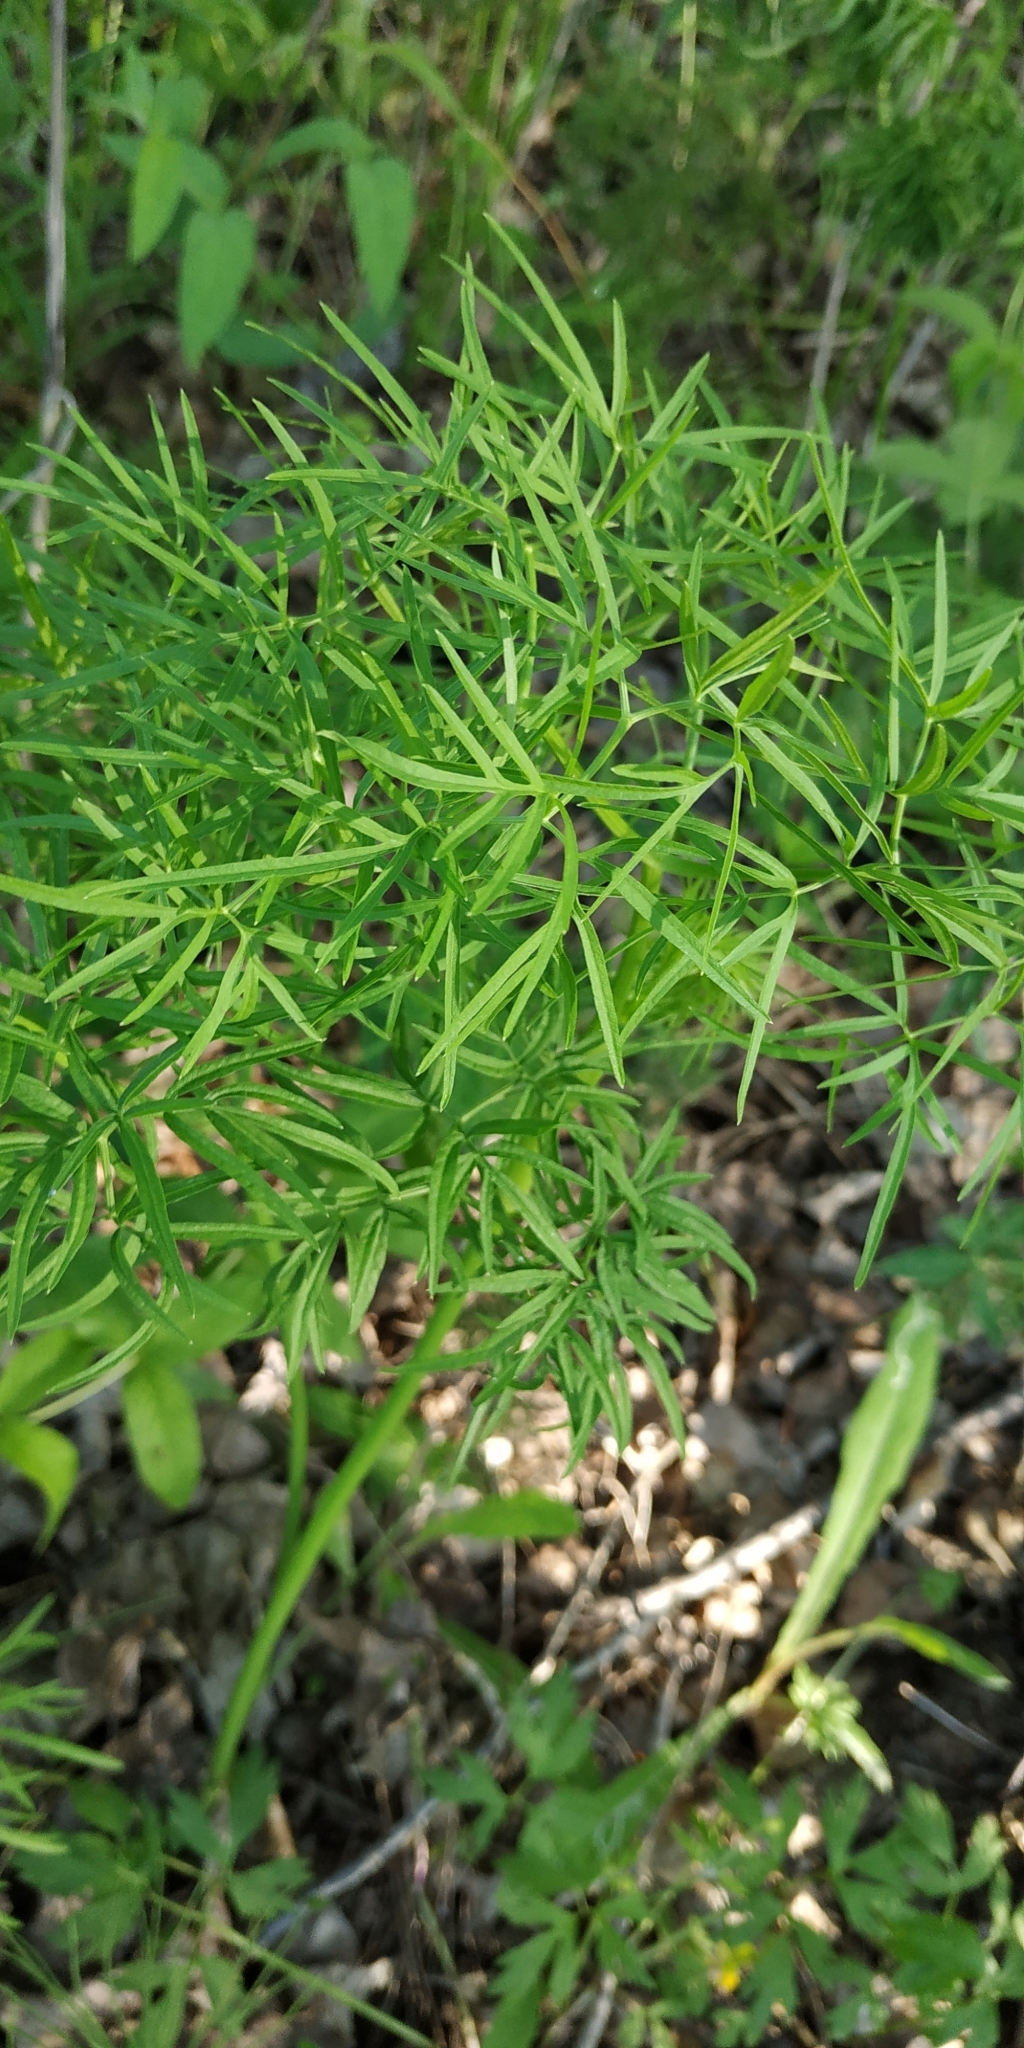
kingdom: Plantae
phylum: Tracheophyta
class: Magnoliopsida
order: Apiales
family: Apiaceae
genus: Cenolophium
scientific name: Cenolophium fischeri
